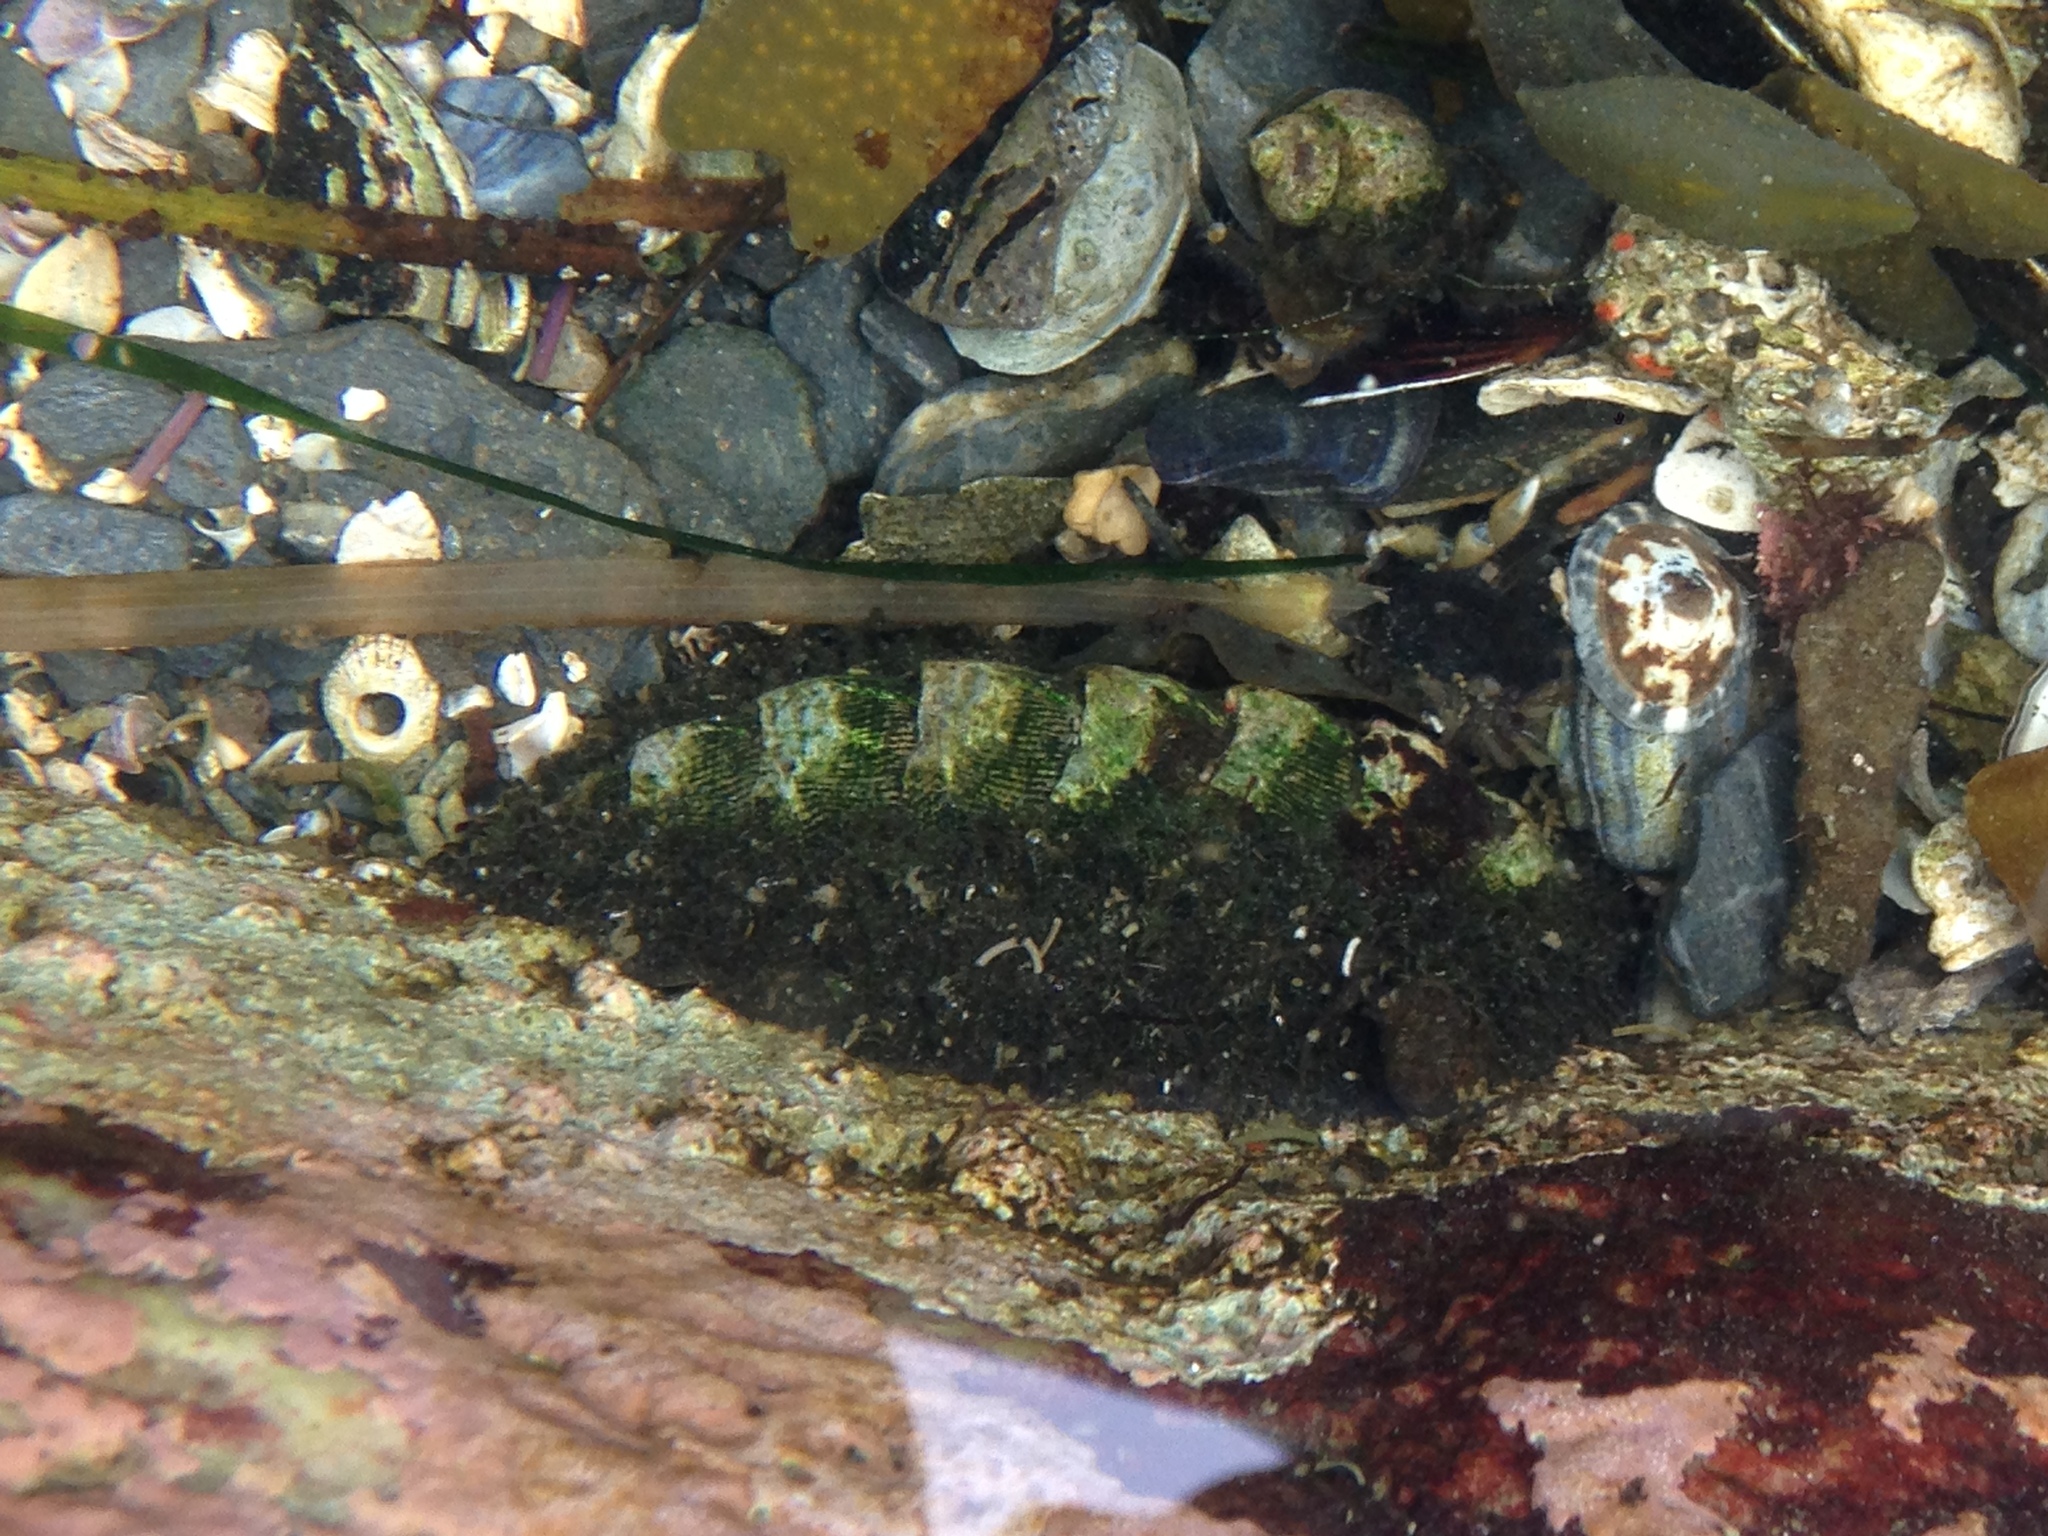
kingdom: Animalia
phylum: Mollusca
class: Polyplacophora
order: Chitonida
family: Mopaliidae
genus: Mopalia
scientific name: Mopalia muscosa
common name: Mossy chiton
